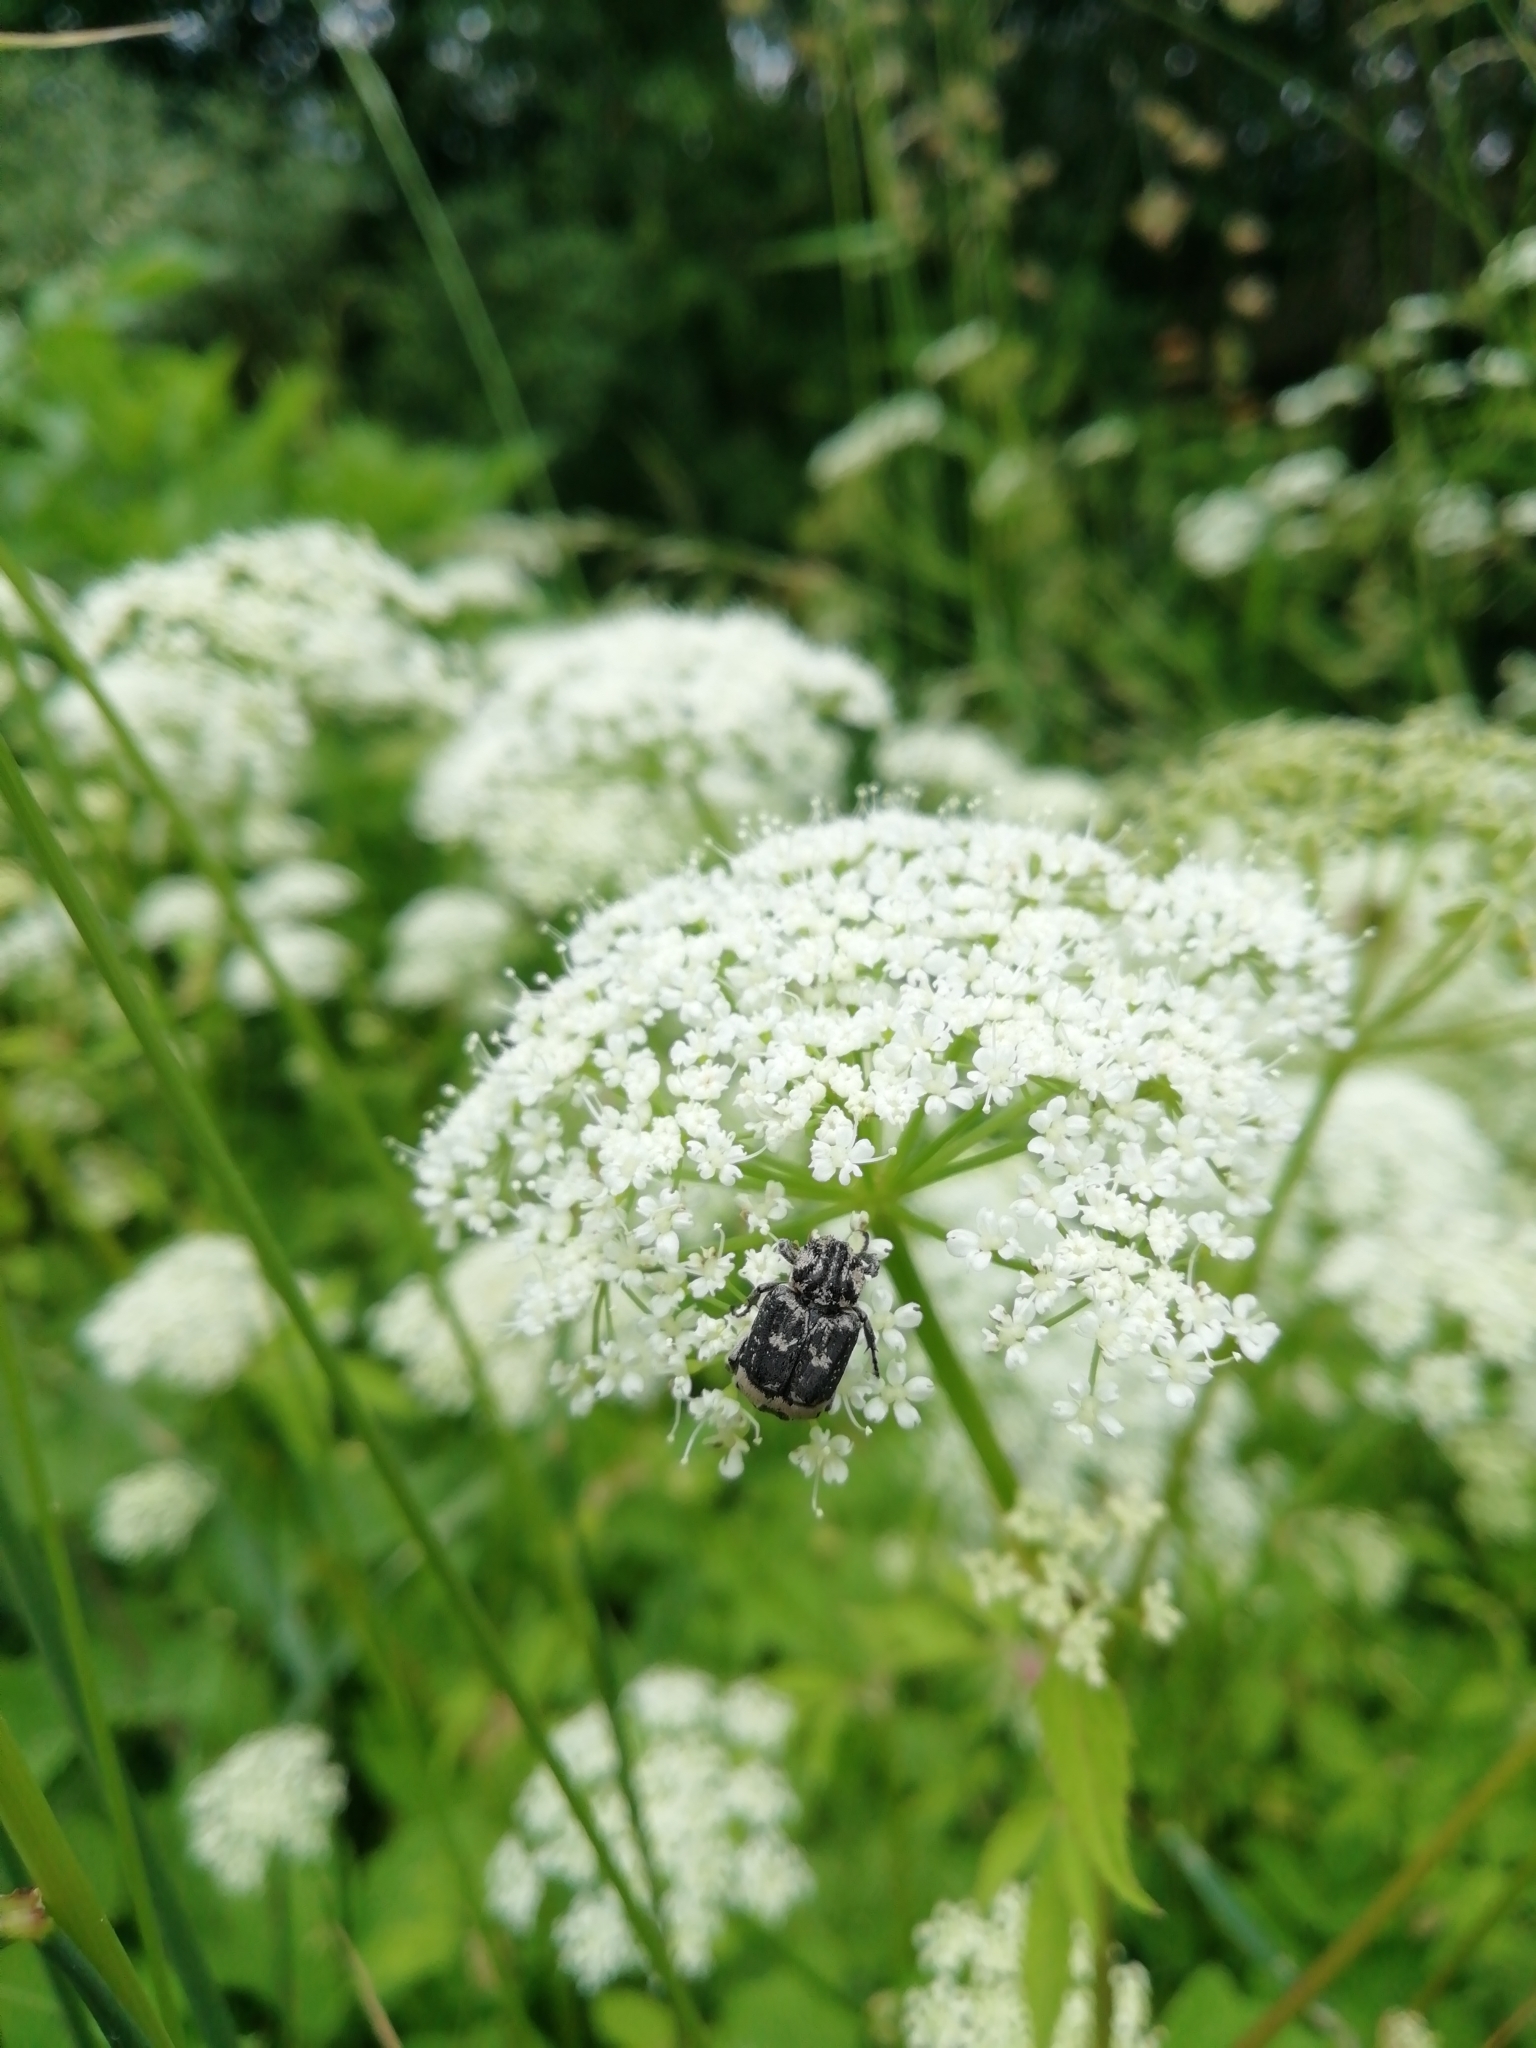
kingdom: Animalia
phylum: Arthropoda
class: Insecta
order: Coleoptera
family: Scarabaeidae
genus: Valgus
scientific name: Valgus hemipterus
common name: Bug flower chafer
